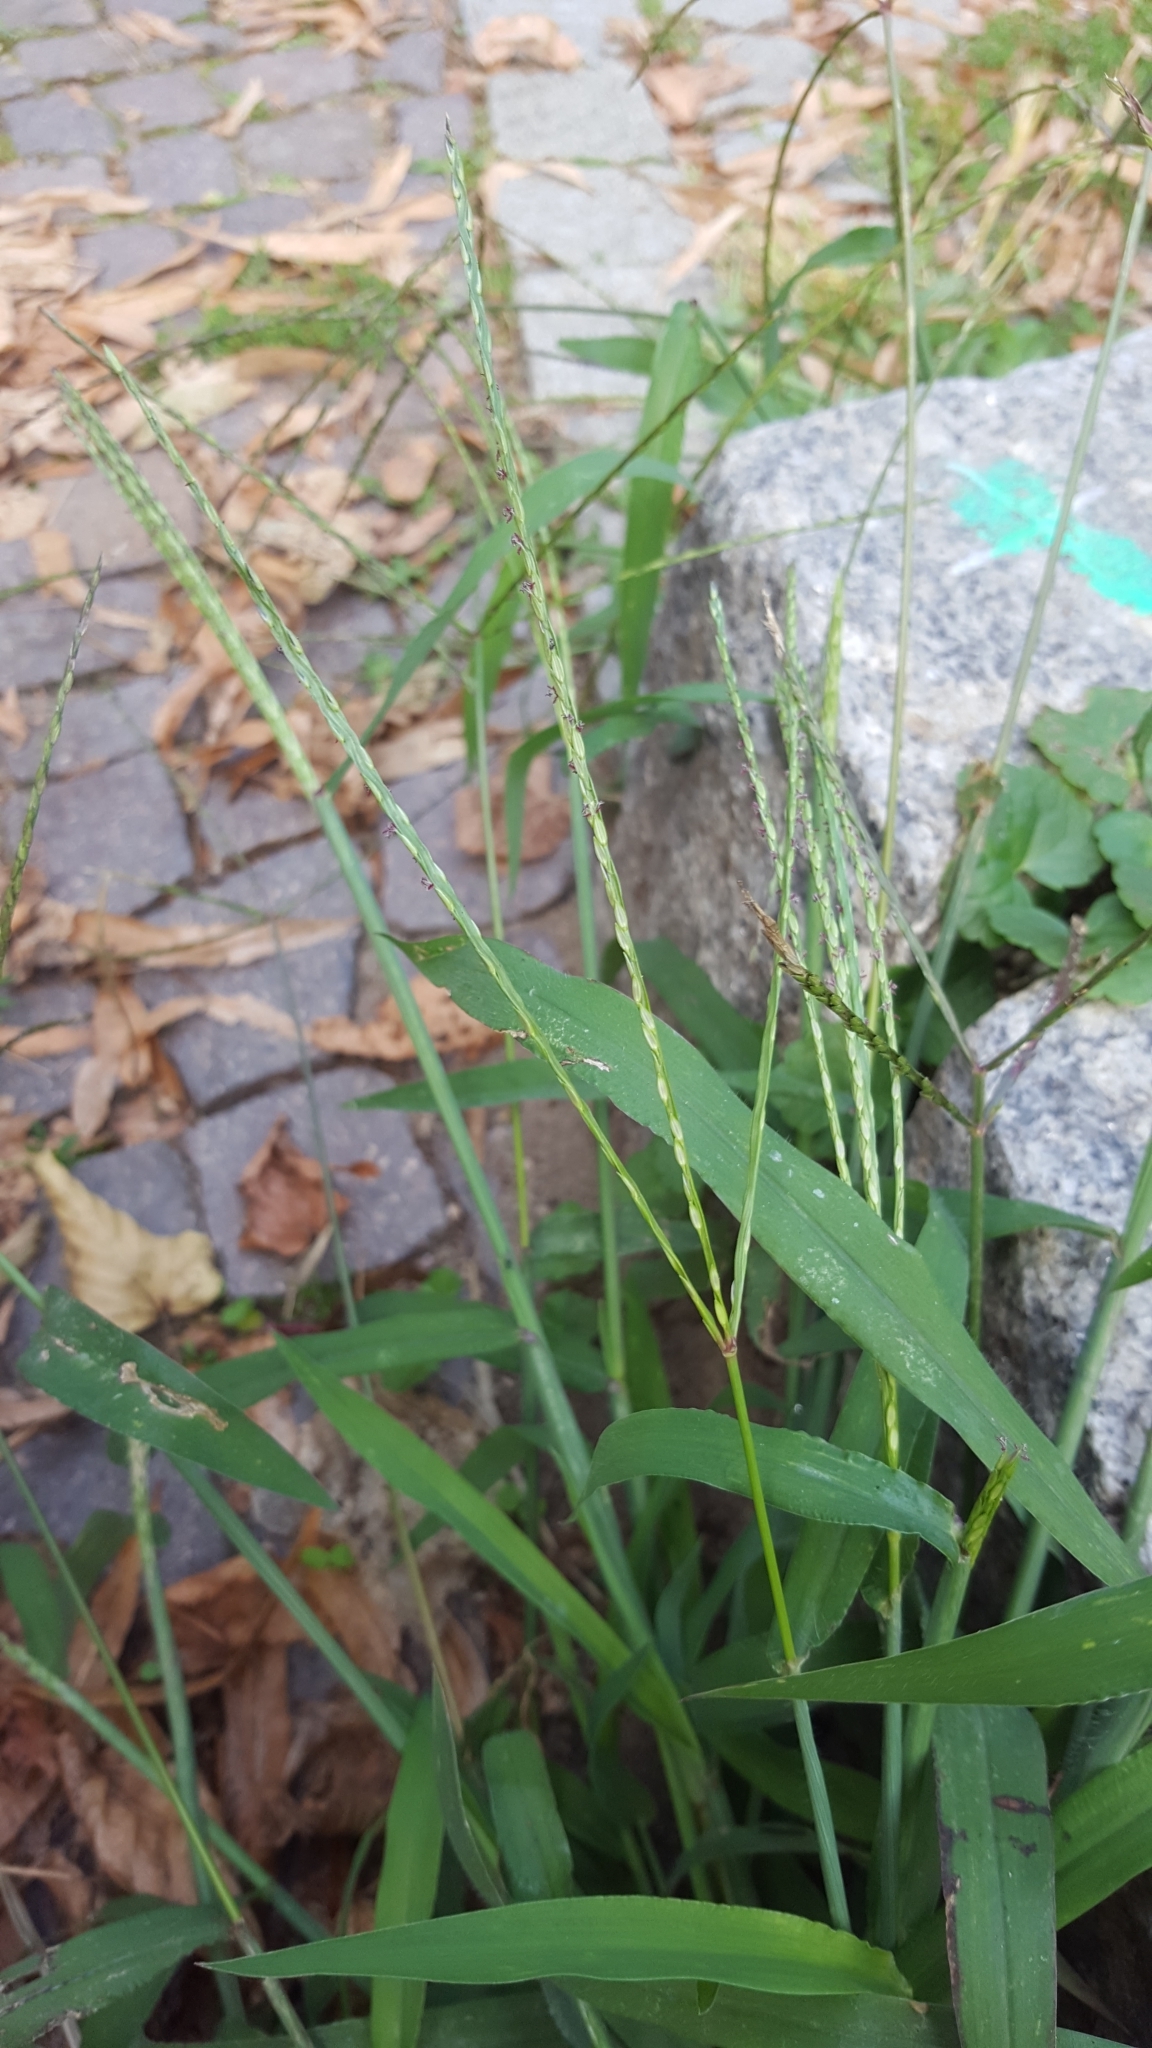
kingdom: Plantae
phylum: Tracheophyta
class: Liliopsida
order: Poales
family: Poaceae
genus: Digitaria
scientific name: Digitaria sanguinalis
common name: Hairy crabgrass
